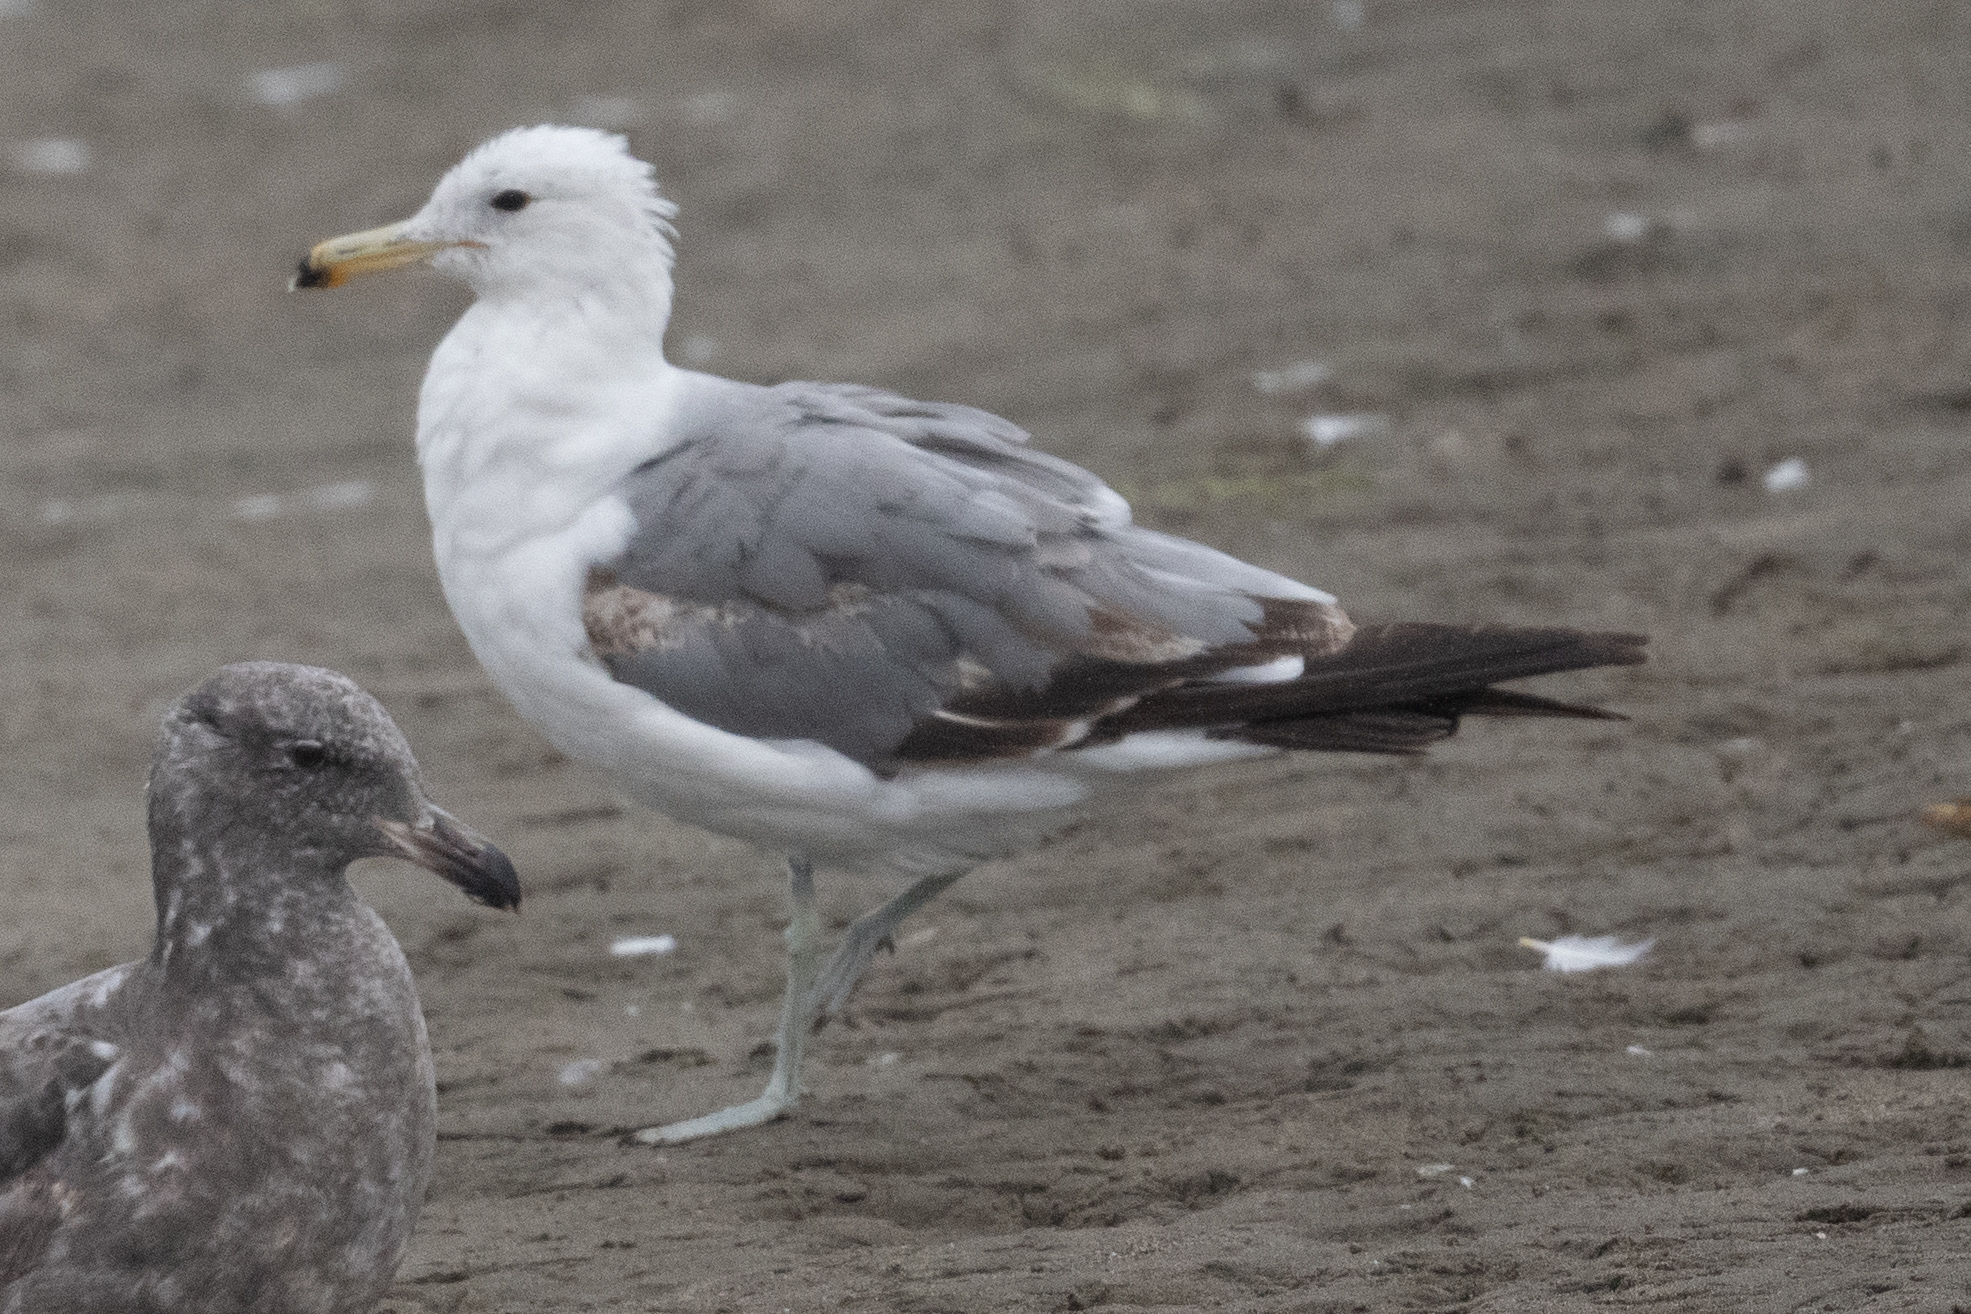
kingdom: Animalia
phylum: Chordata
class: Aves
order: Charadriiformes
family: Laridae
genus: Larus
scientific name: Larus californicus
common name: California gull
